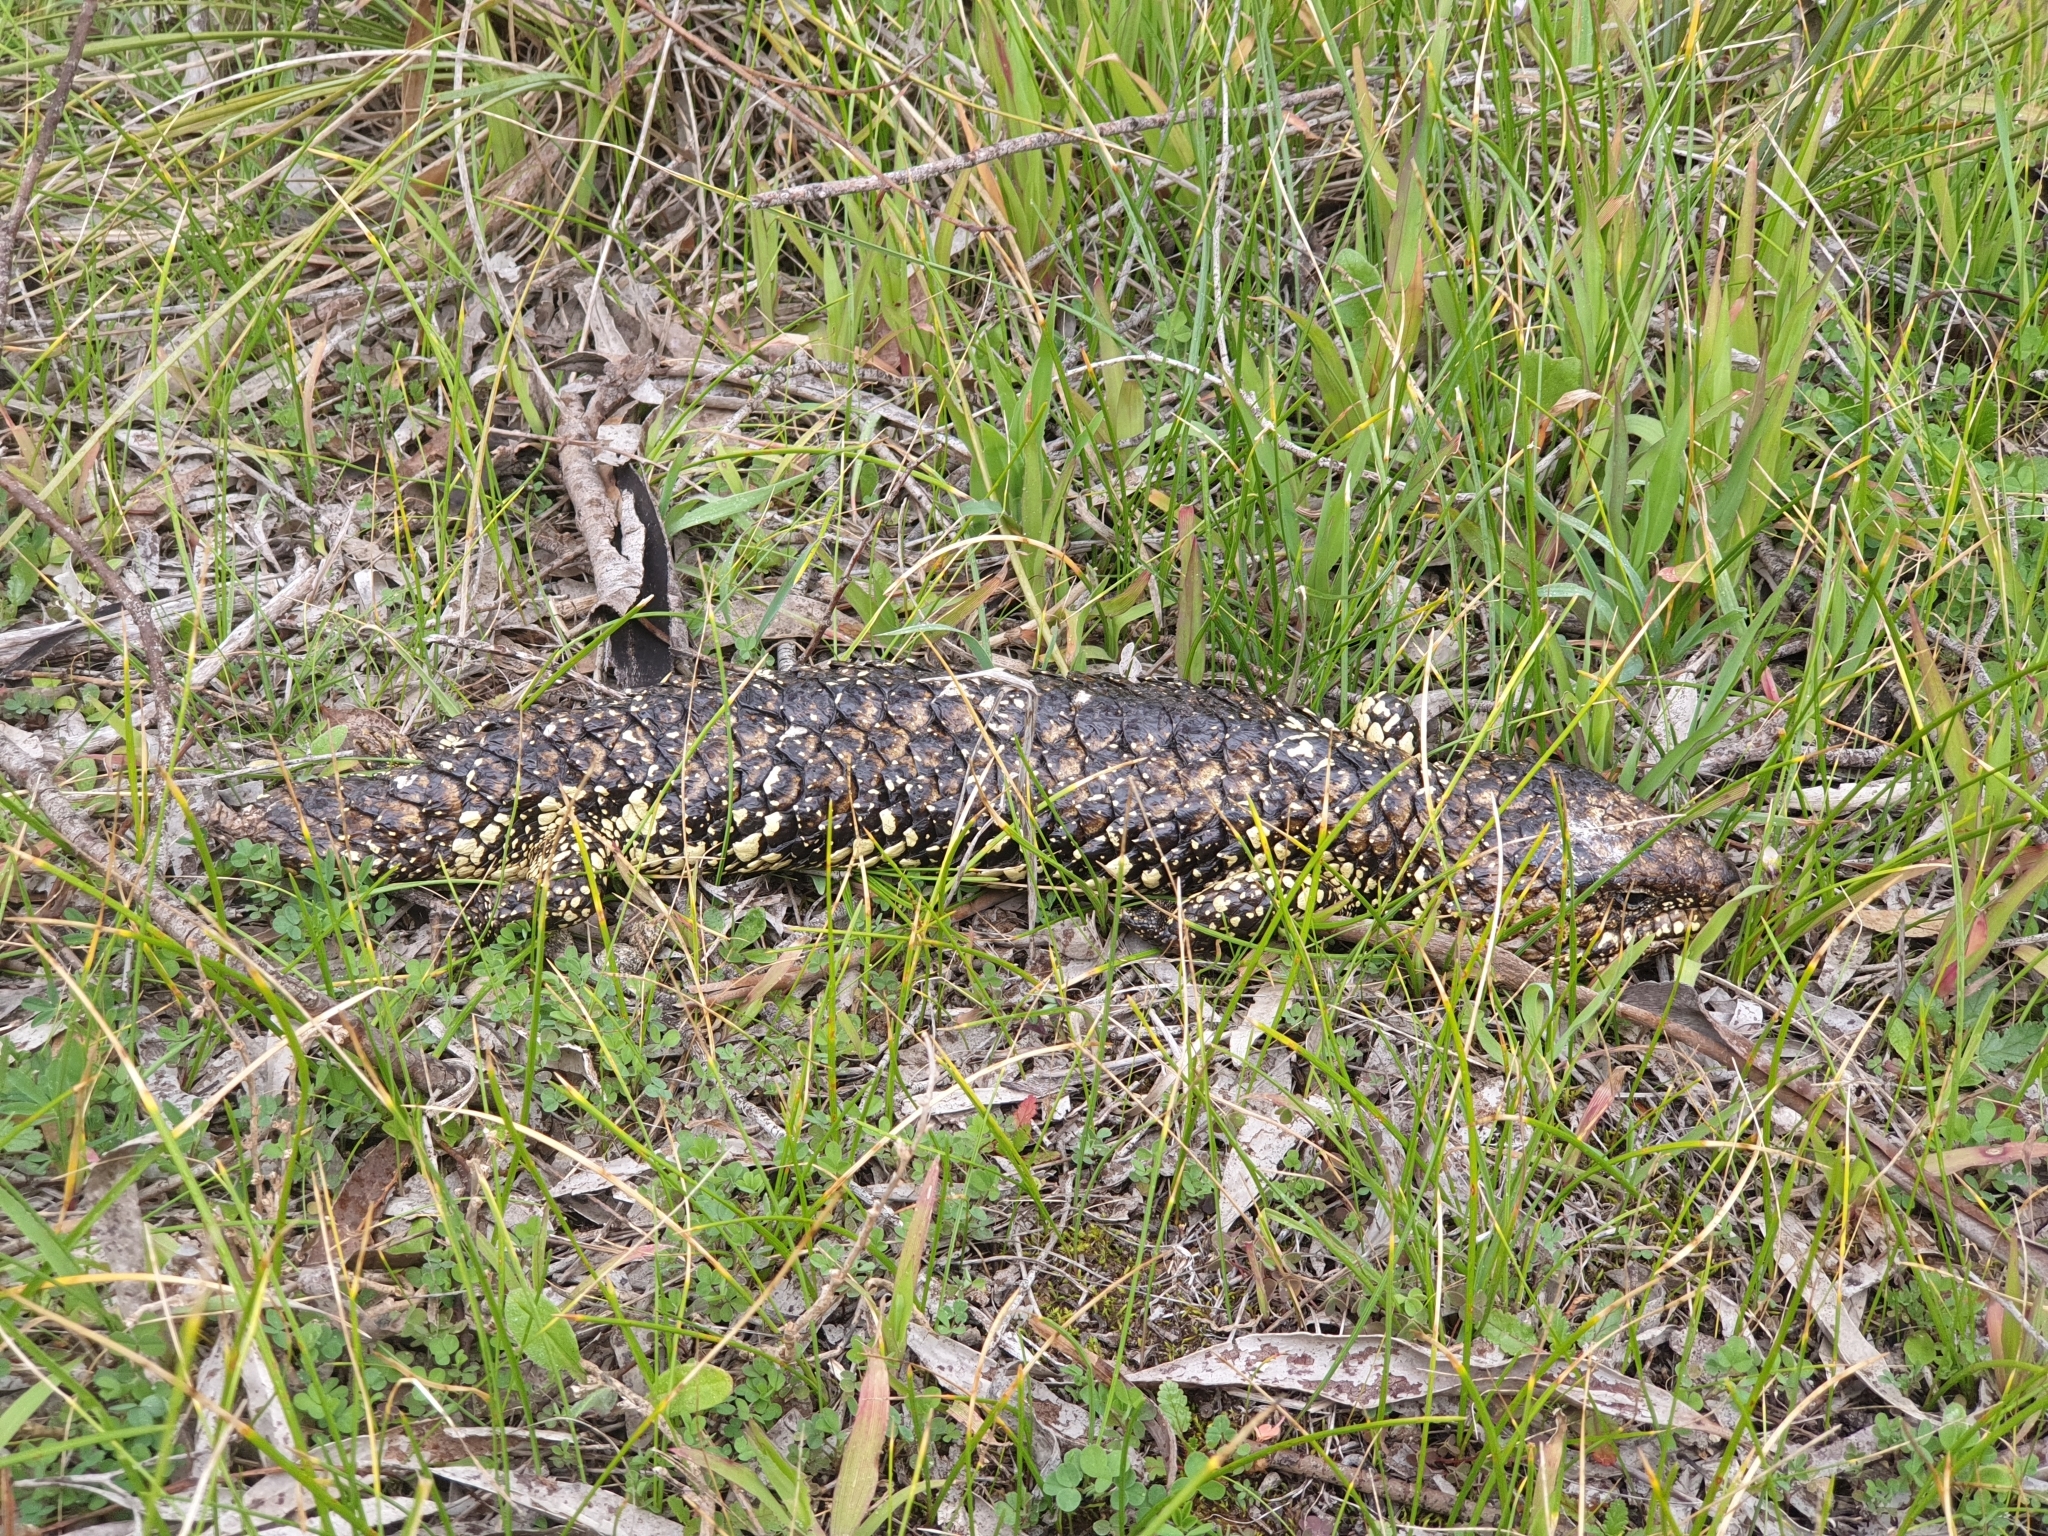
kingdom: Animalia
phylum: Chordata
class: Squamata
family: Scincidae
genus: Tiliqua
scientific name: Tiliqua rugosa
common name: Pinecone lizard
